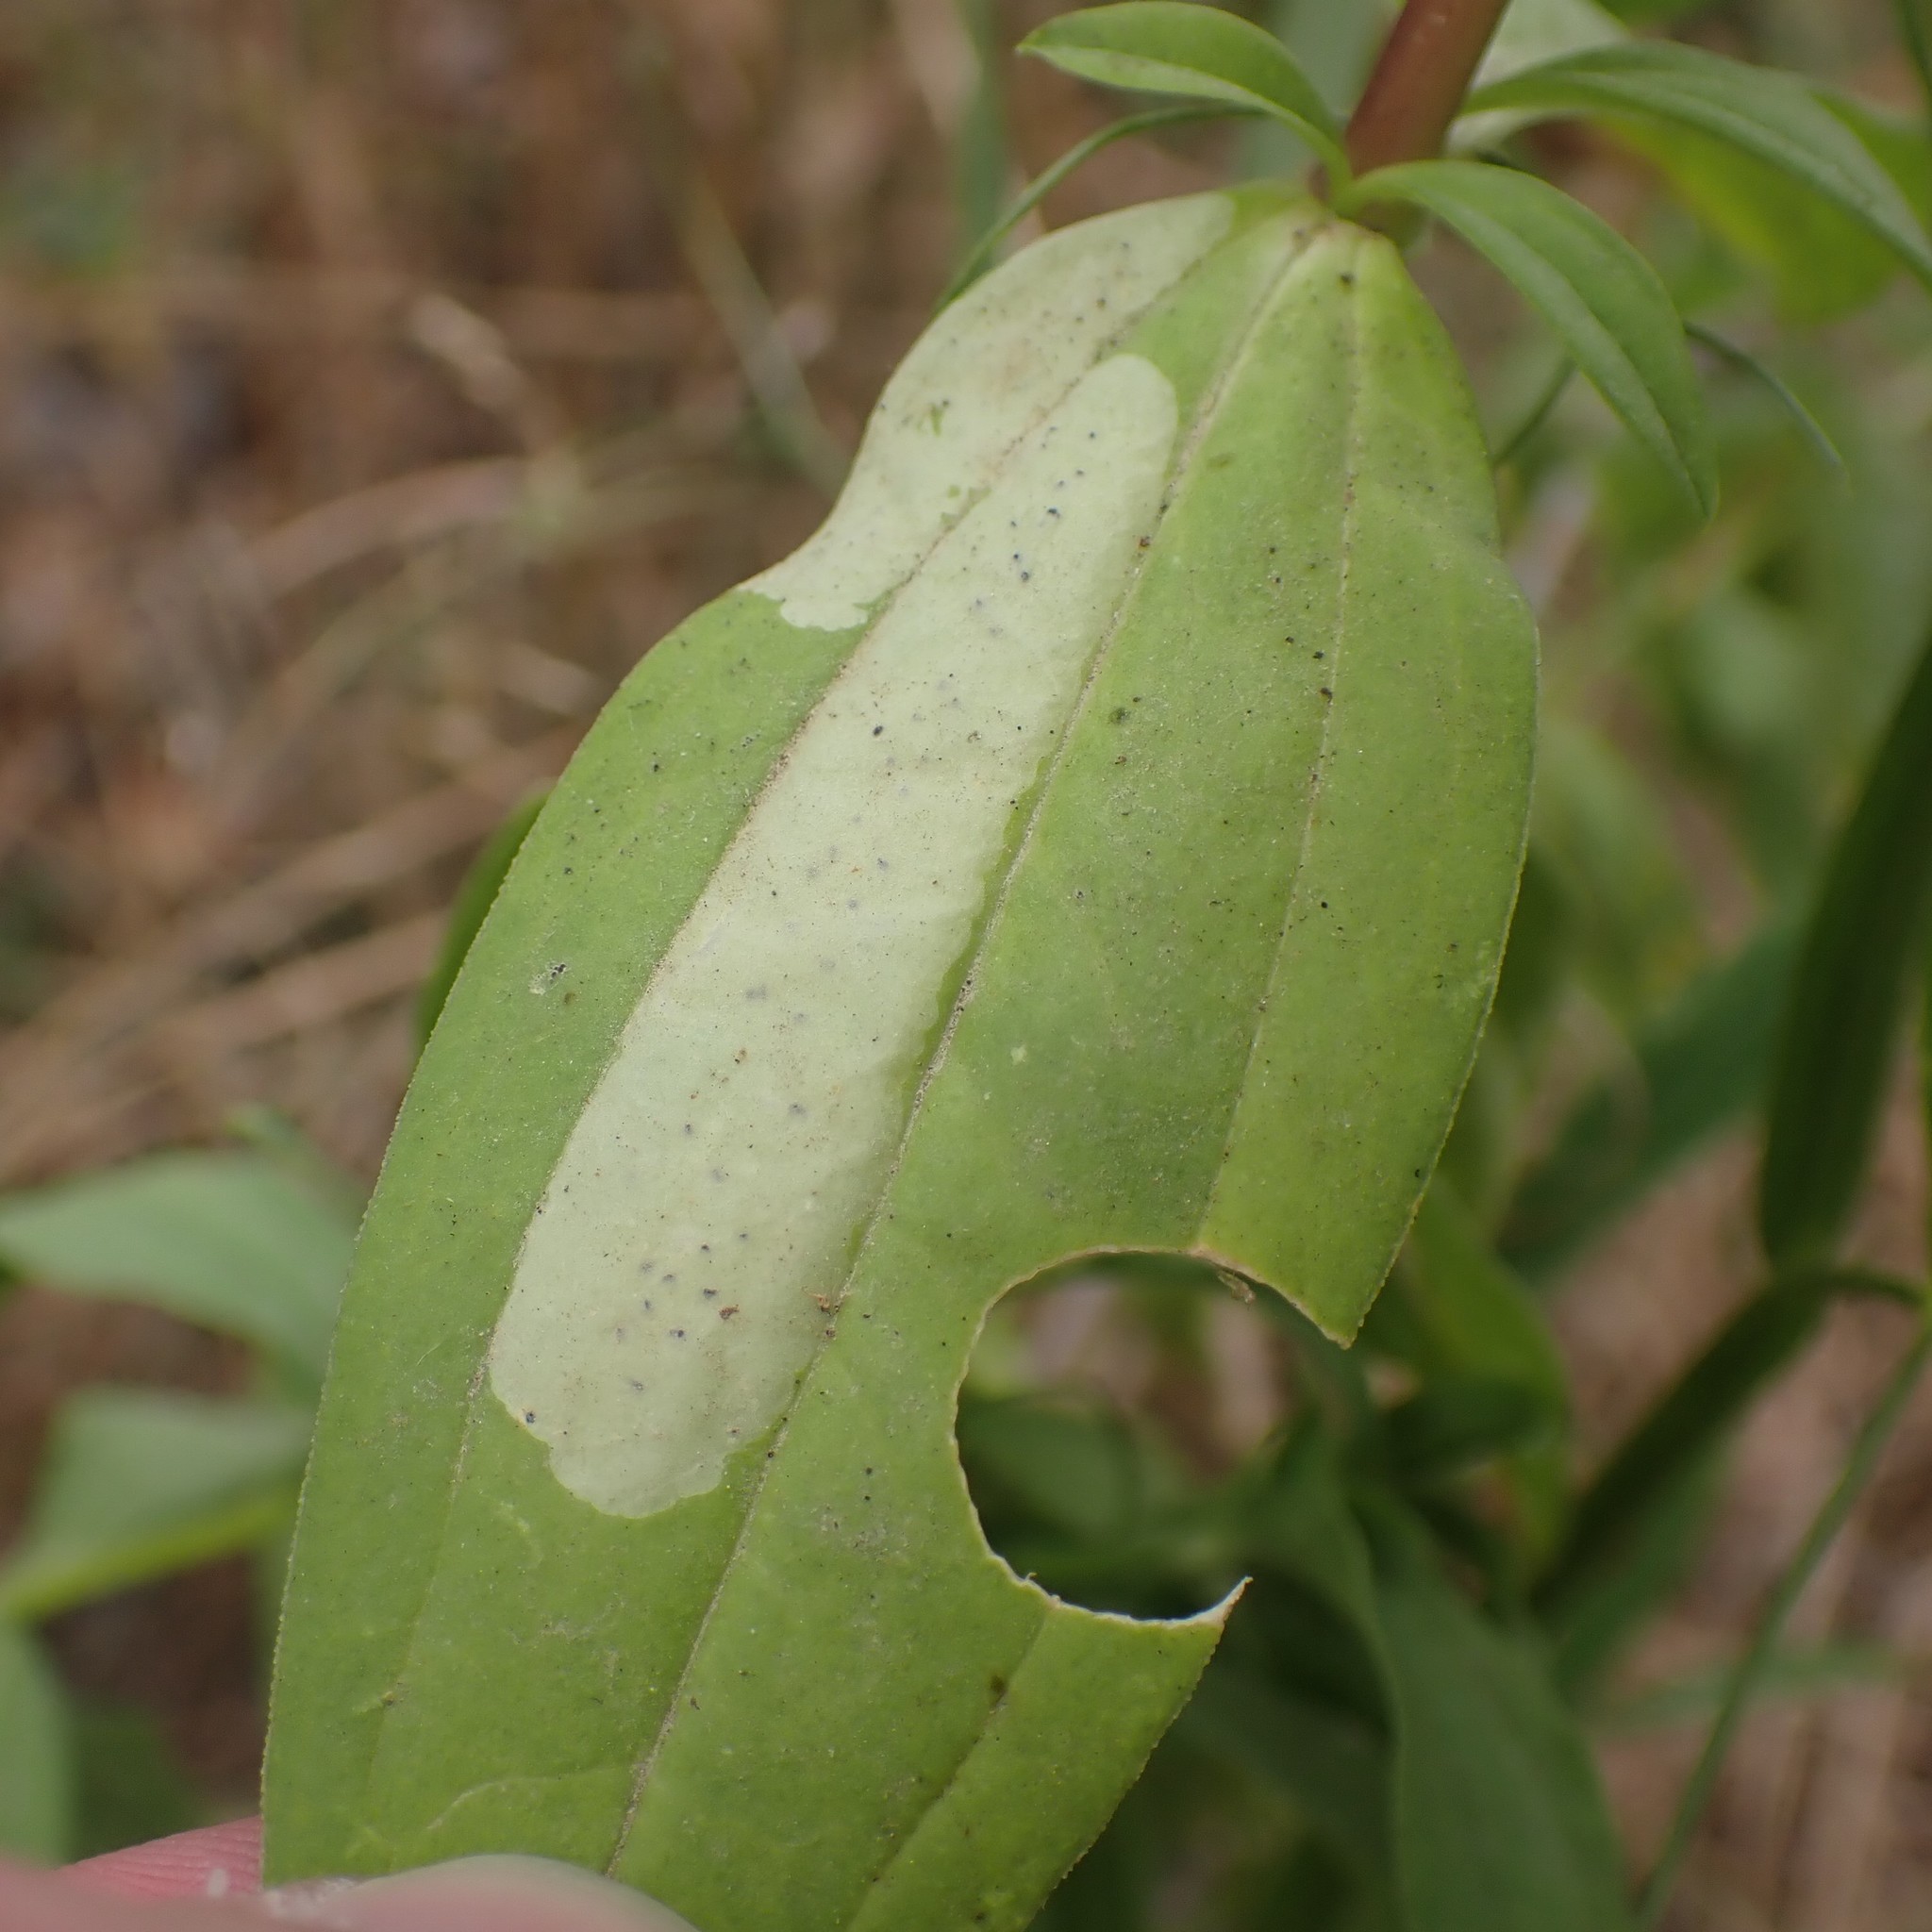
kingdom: Animalia
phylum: Arthropoda
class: Insecta
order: Diptera
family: Agromyzidae
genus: Amauromyza
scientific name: Amauromyza flavifrons
